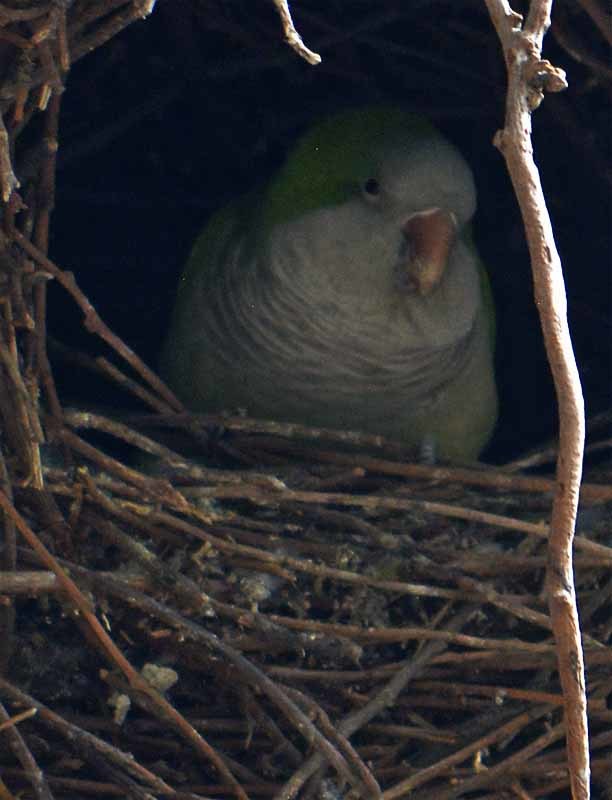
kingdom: Animalia
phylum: Chordata
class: Aves
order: Psittaciformes
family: Psittacidae
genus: Myiopsitta
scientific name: Myiopsitta monachus
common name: Monk parakeet
